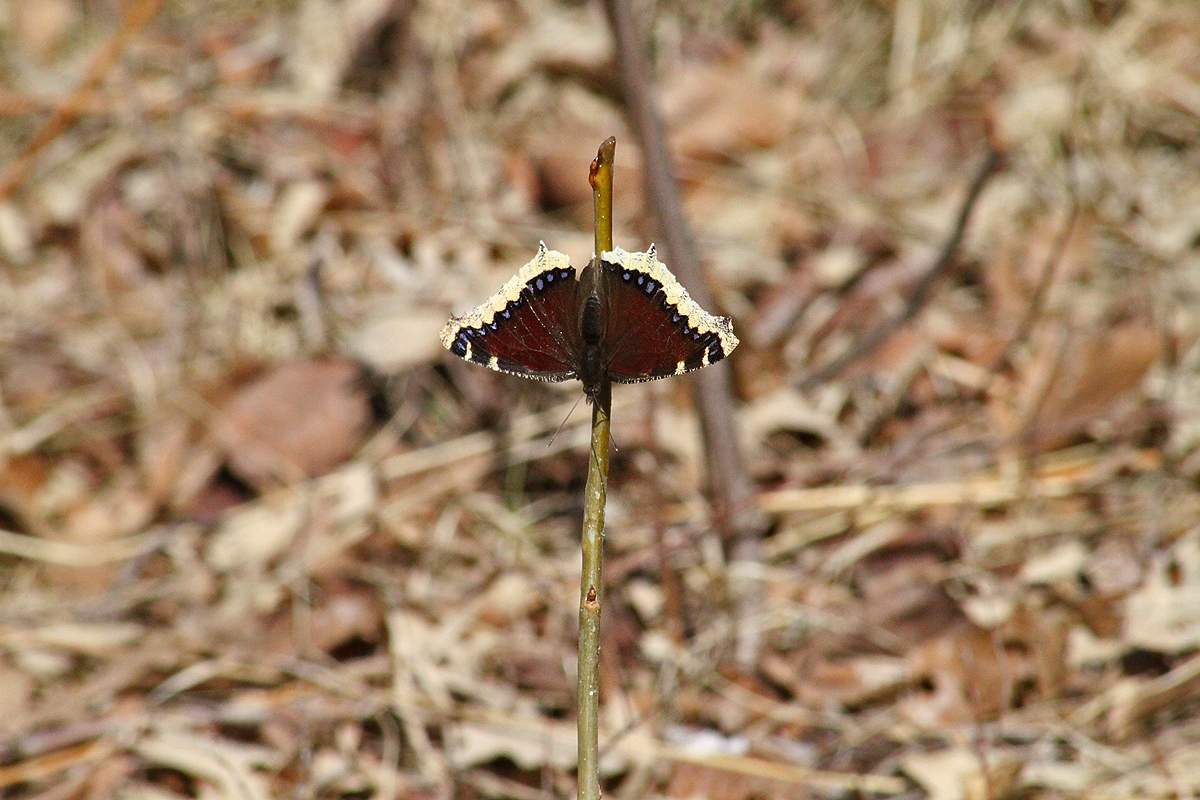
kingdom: Animalia
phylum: Arthropoda
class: Insecta
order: Lepidoptera
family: Nymphalidae
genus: Nymphalis
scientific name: Nymphalis antiopa
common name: Camberwell beauty
